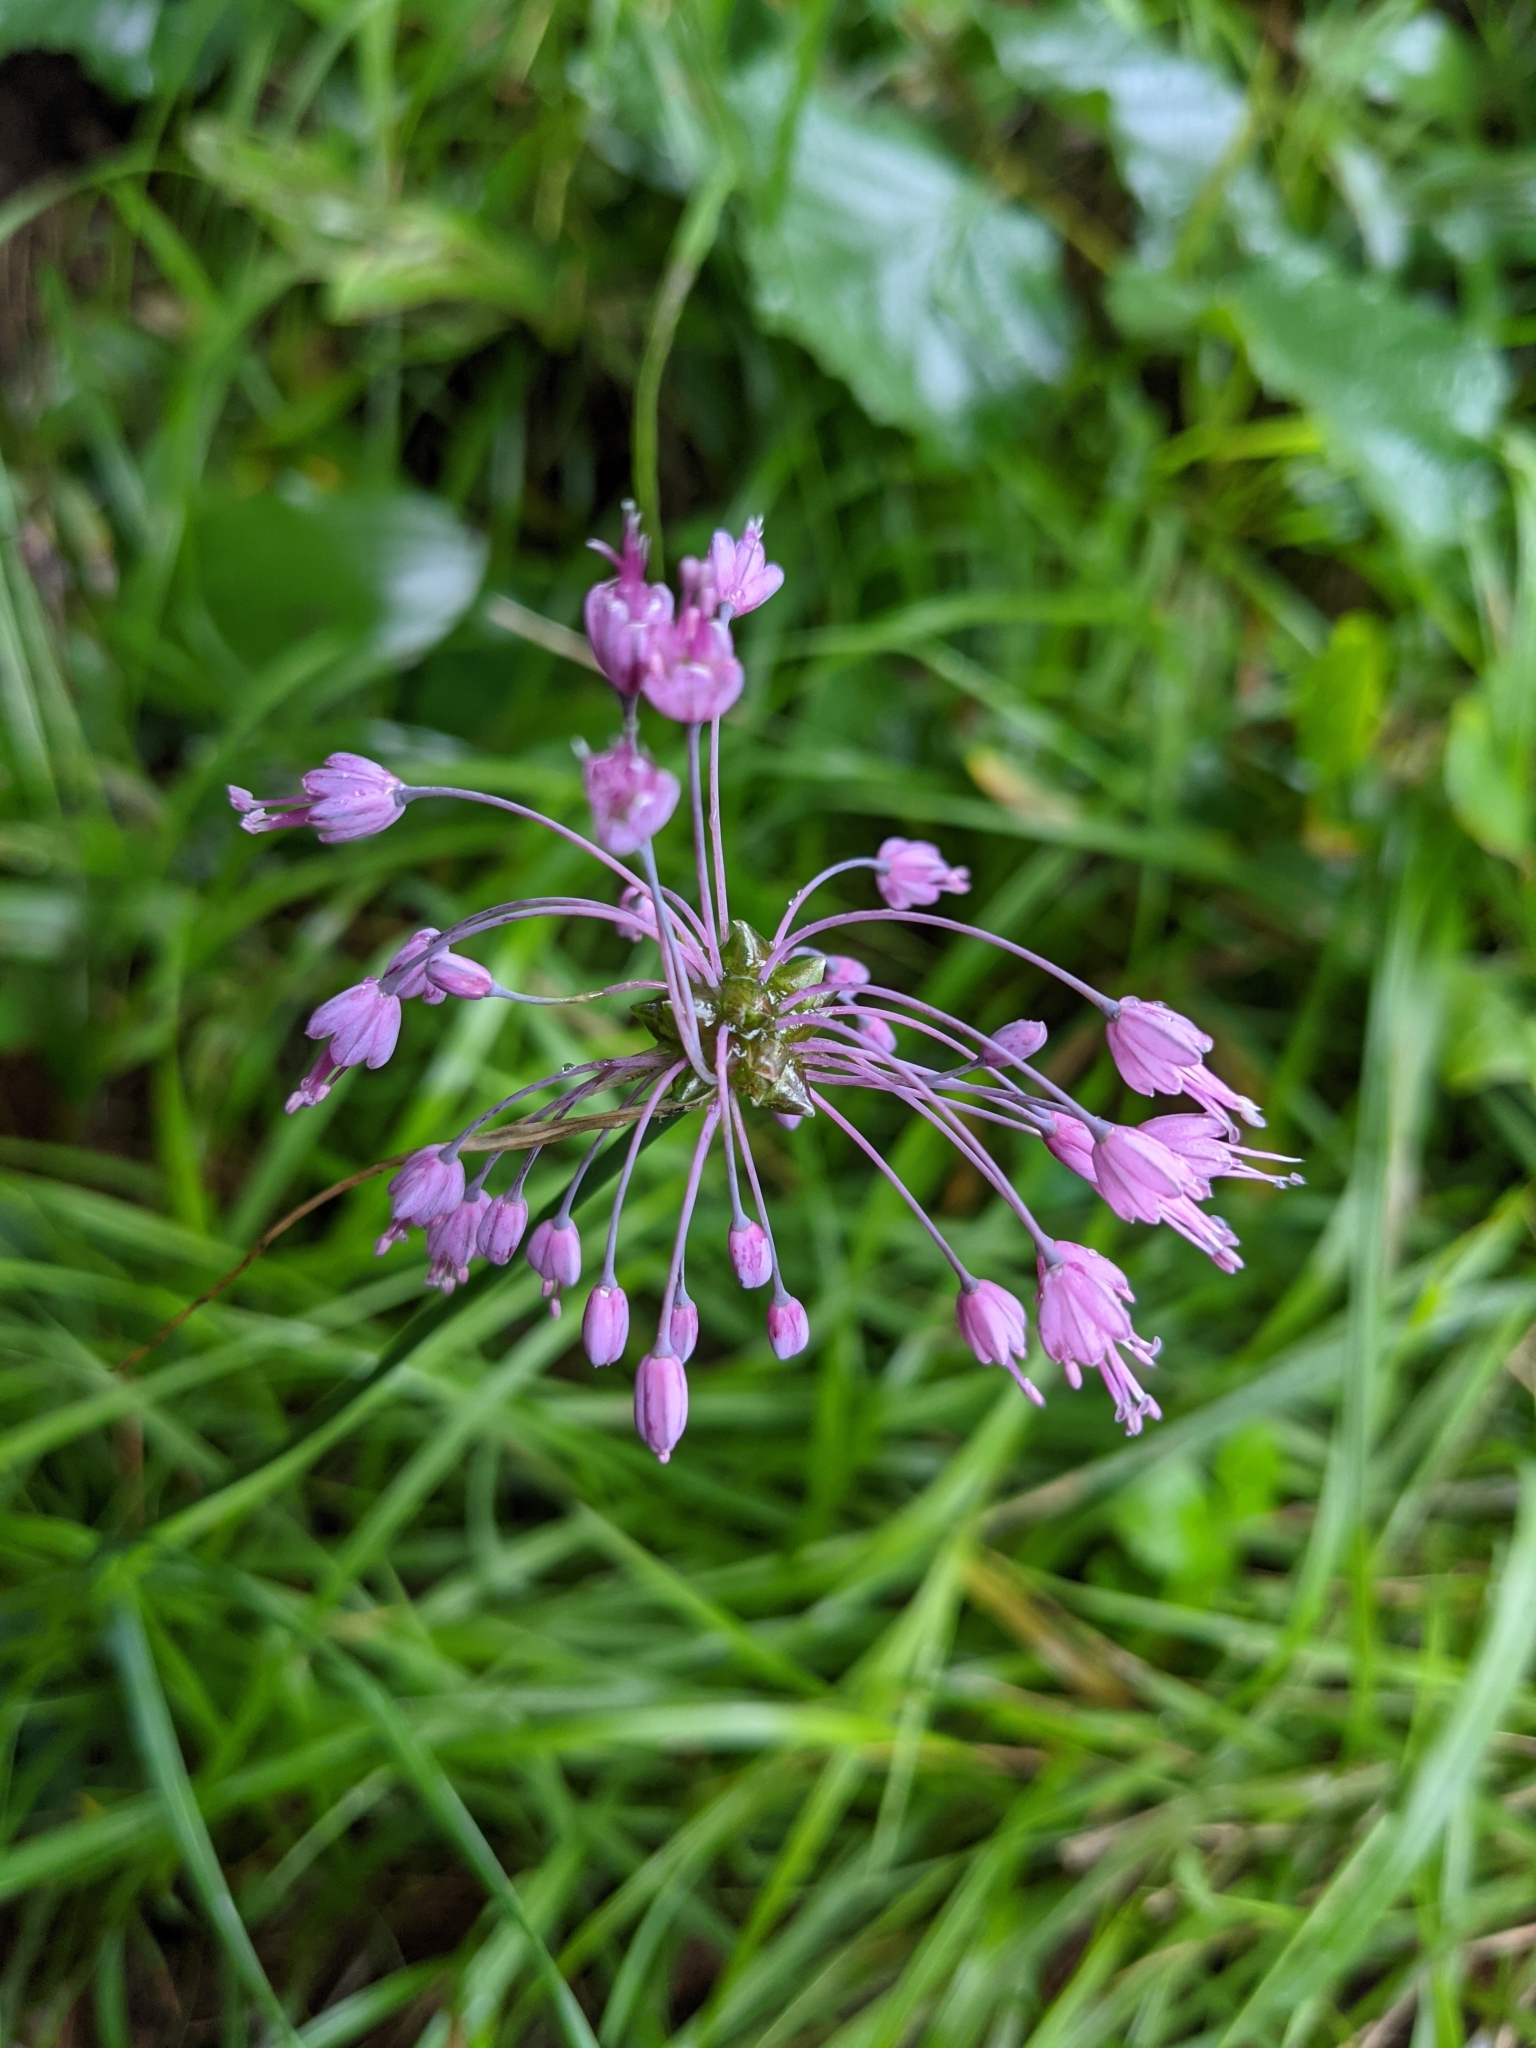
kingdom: Plantae
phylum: Tracheophyta
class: Liliopsida
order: Asparagales
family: Amaryllidaceae
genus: Allium
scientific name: Allium carinatum
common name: Keeled garlic
